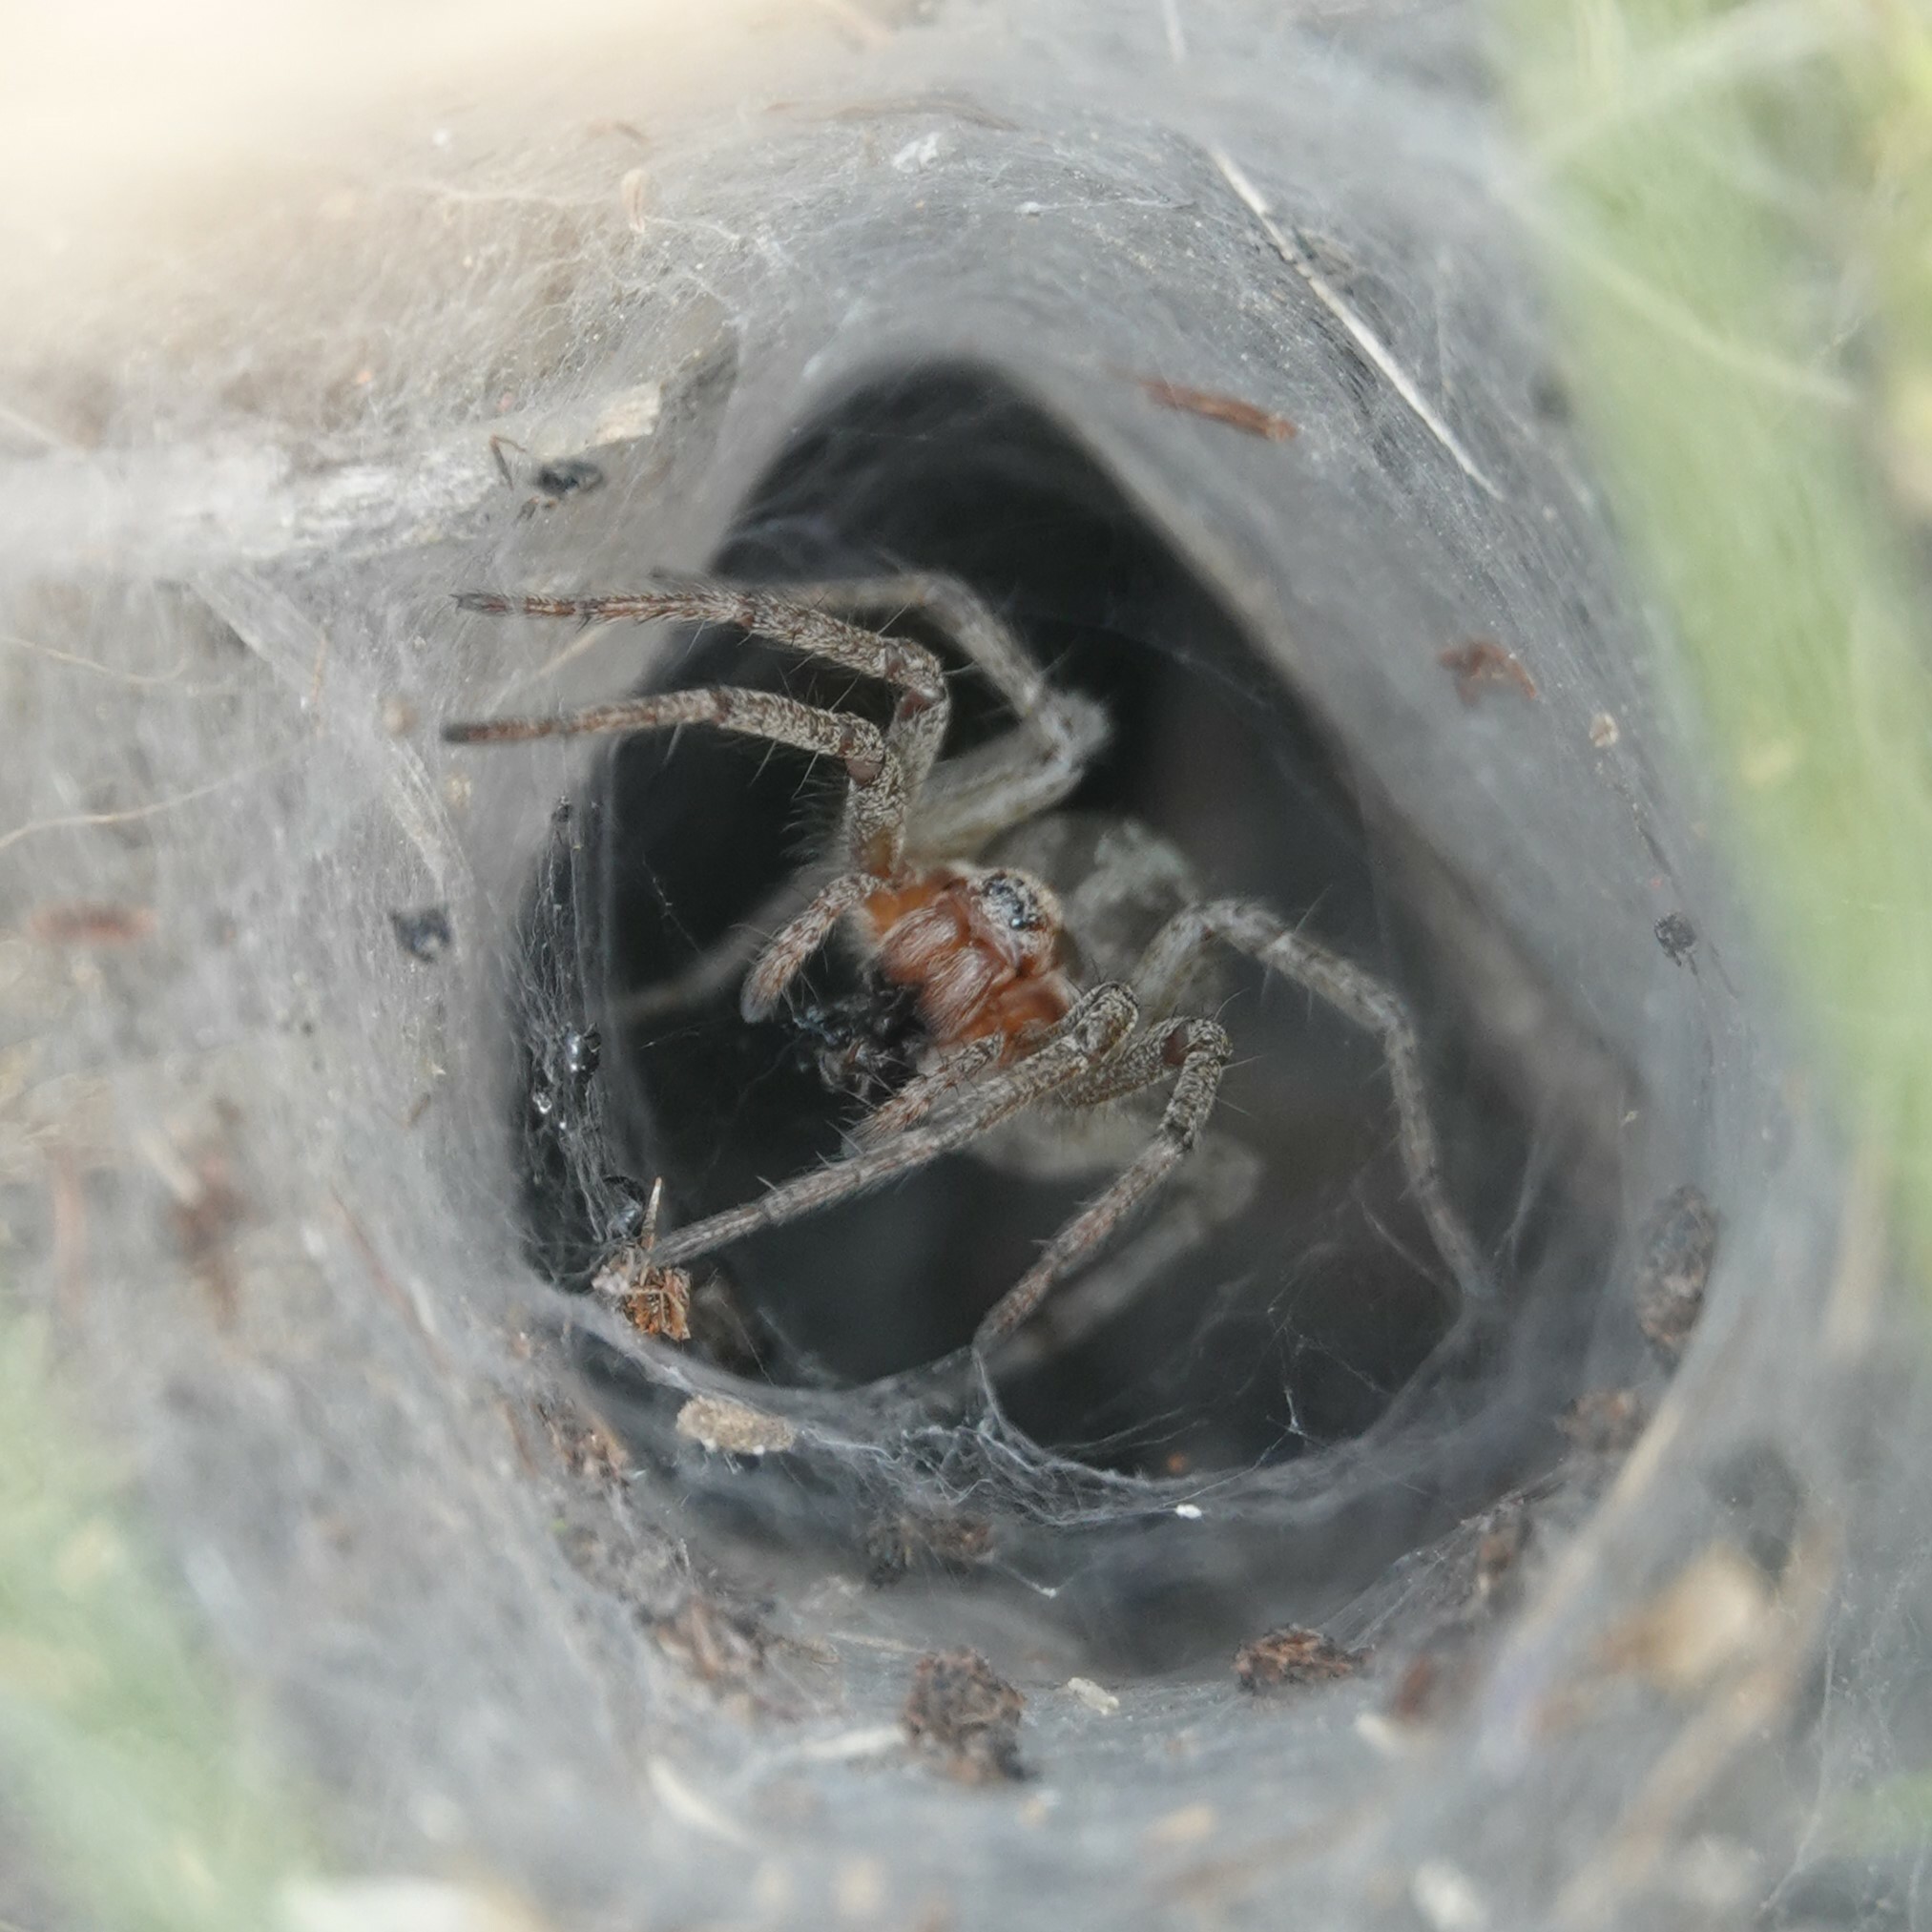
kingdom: Animalia
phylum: Arthropoda
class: Arachnida
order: Araneae
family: Agelenidae
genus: Agelena
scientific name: Agelena labyrinthica
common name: Labyrinth spider
